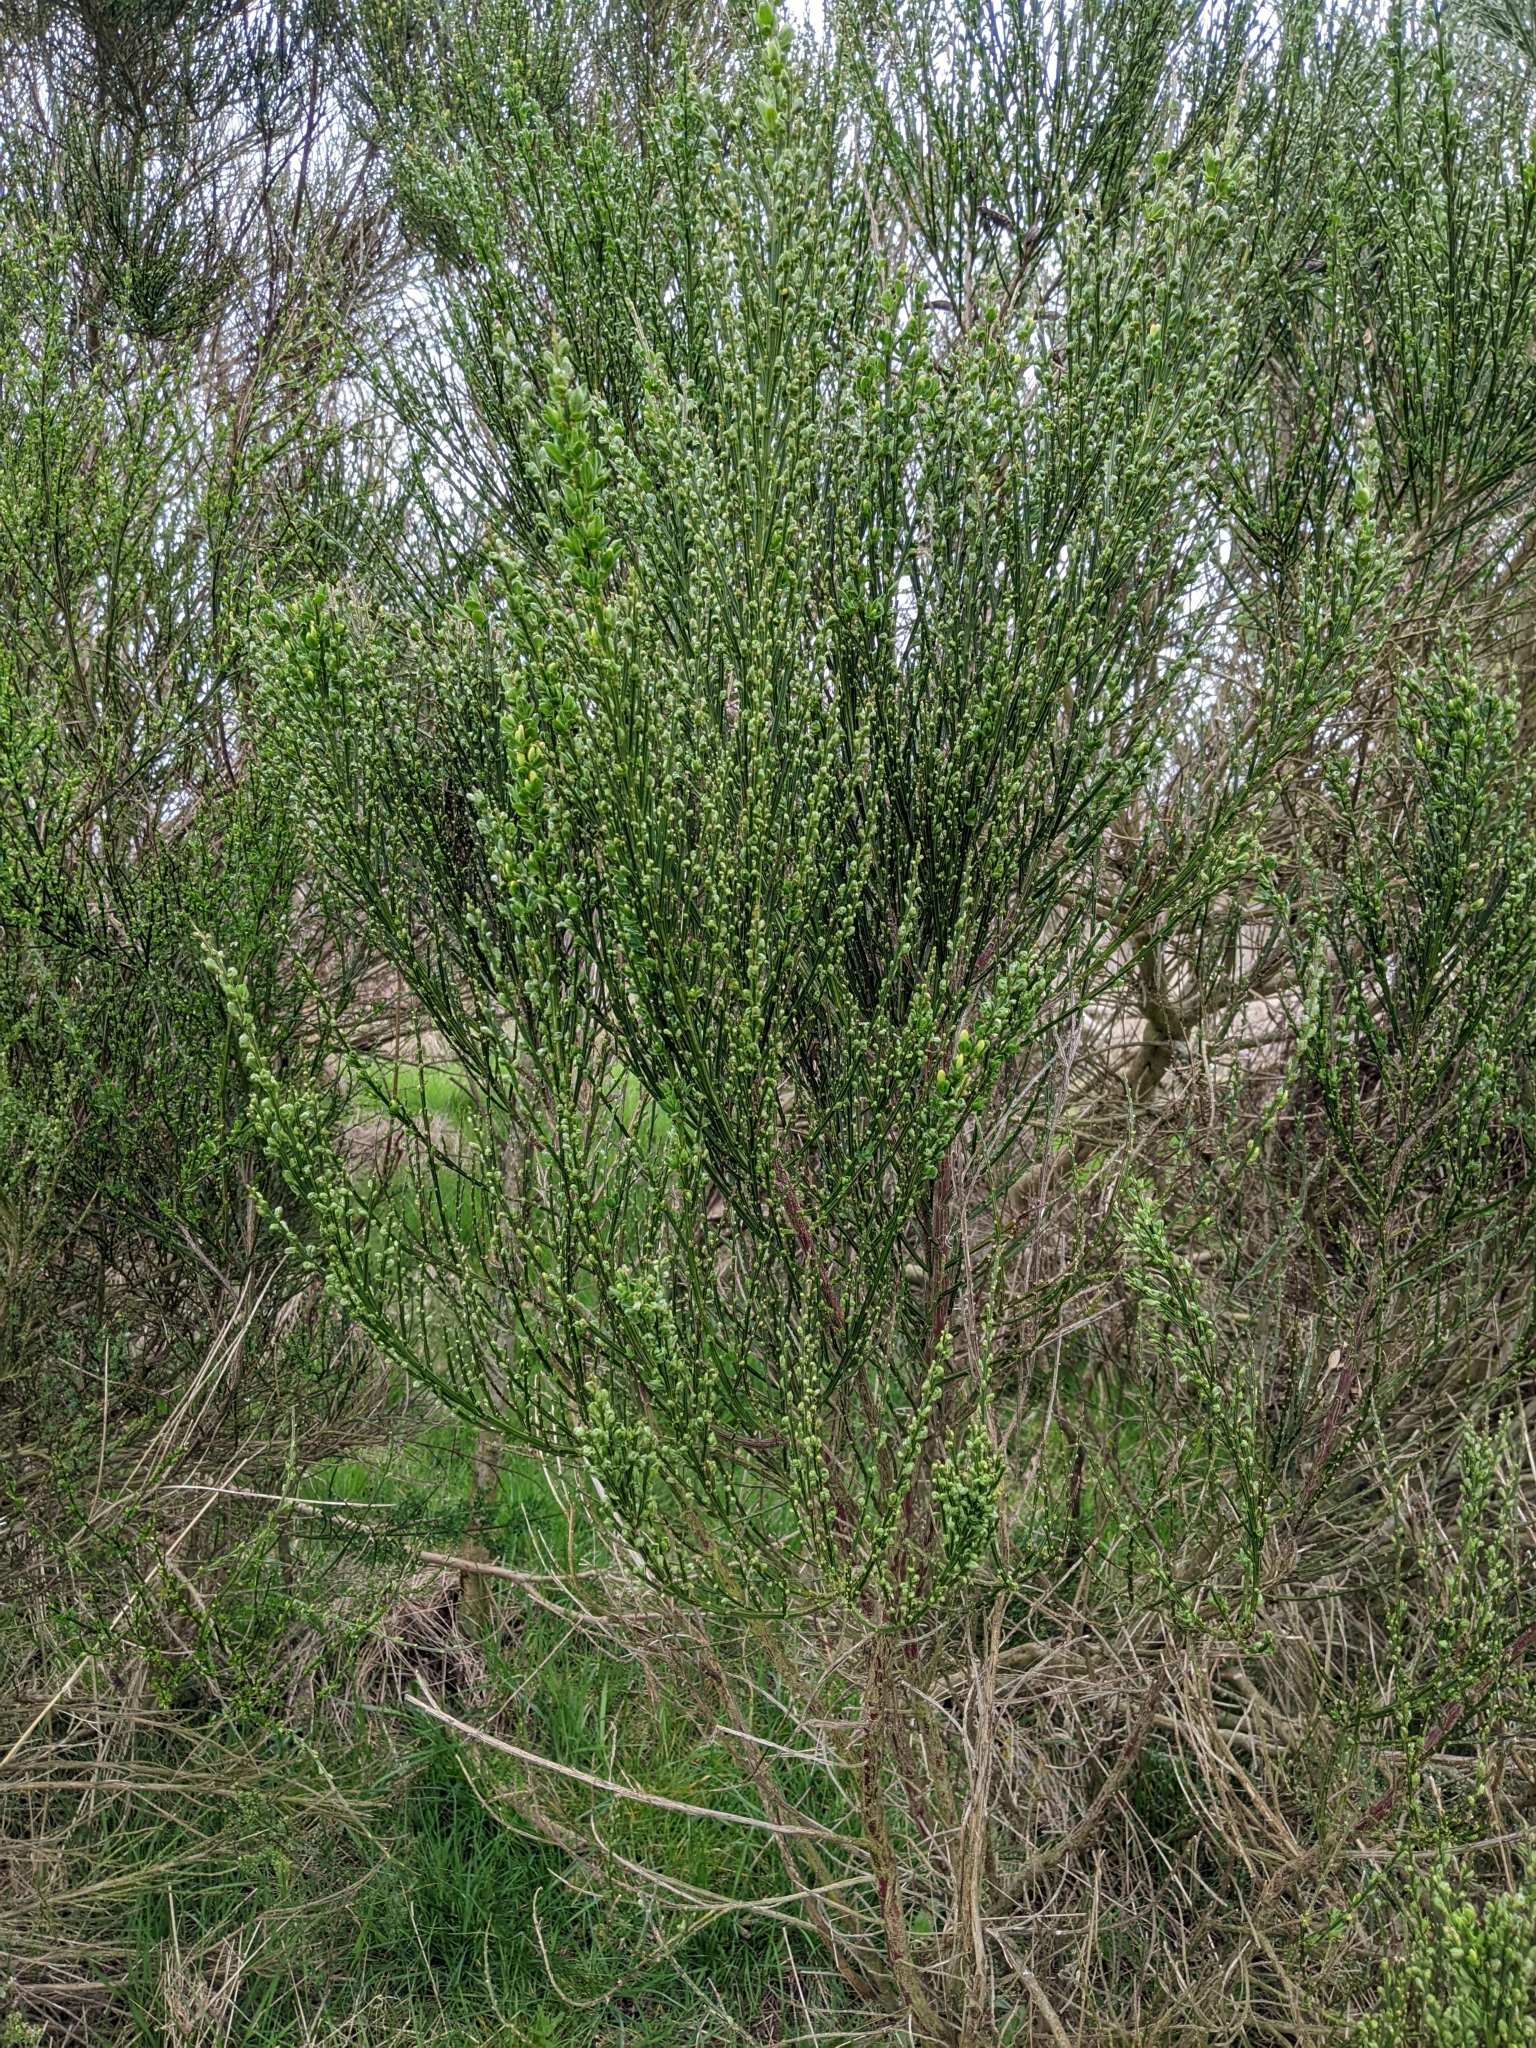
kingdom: Plantae
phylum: Tracheophyta
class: Magnoliopsida
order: Fabales
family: Fabaceae
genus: Cytisus
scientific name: Cytisus scoparius
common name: Scotch broom
